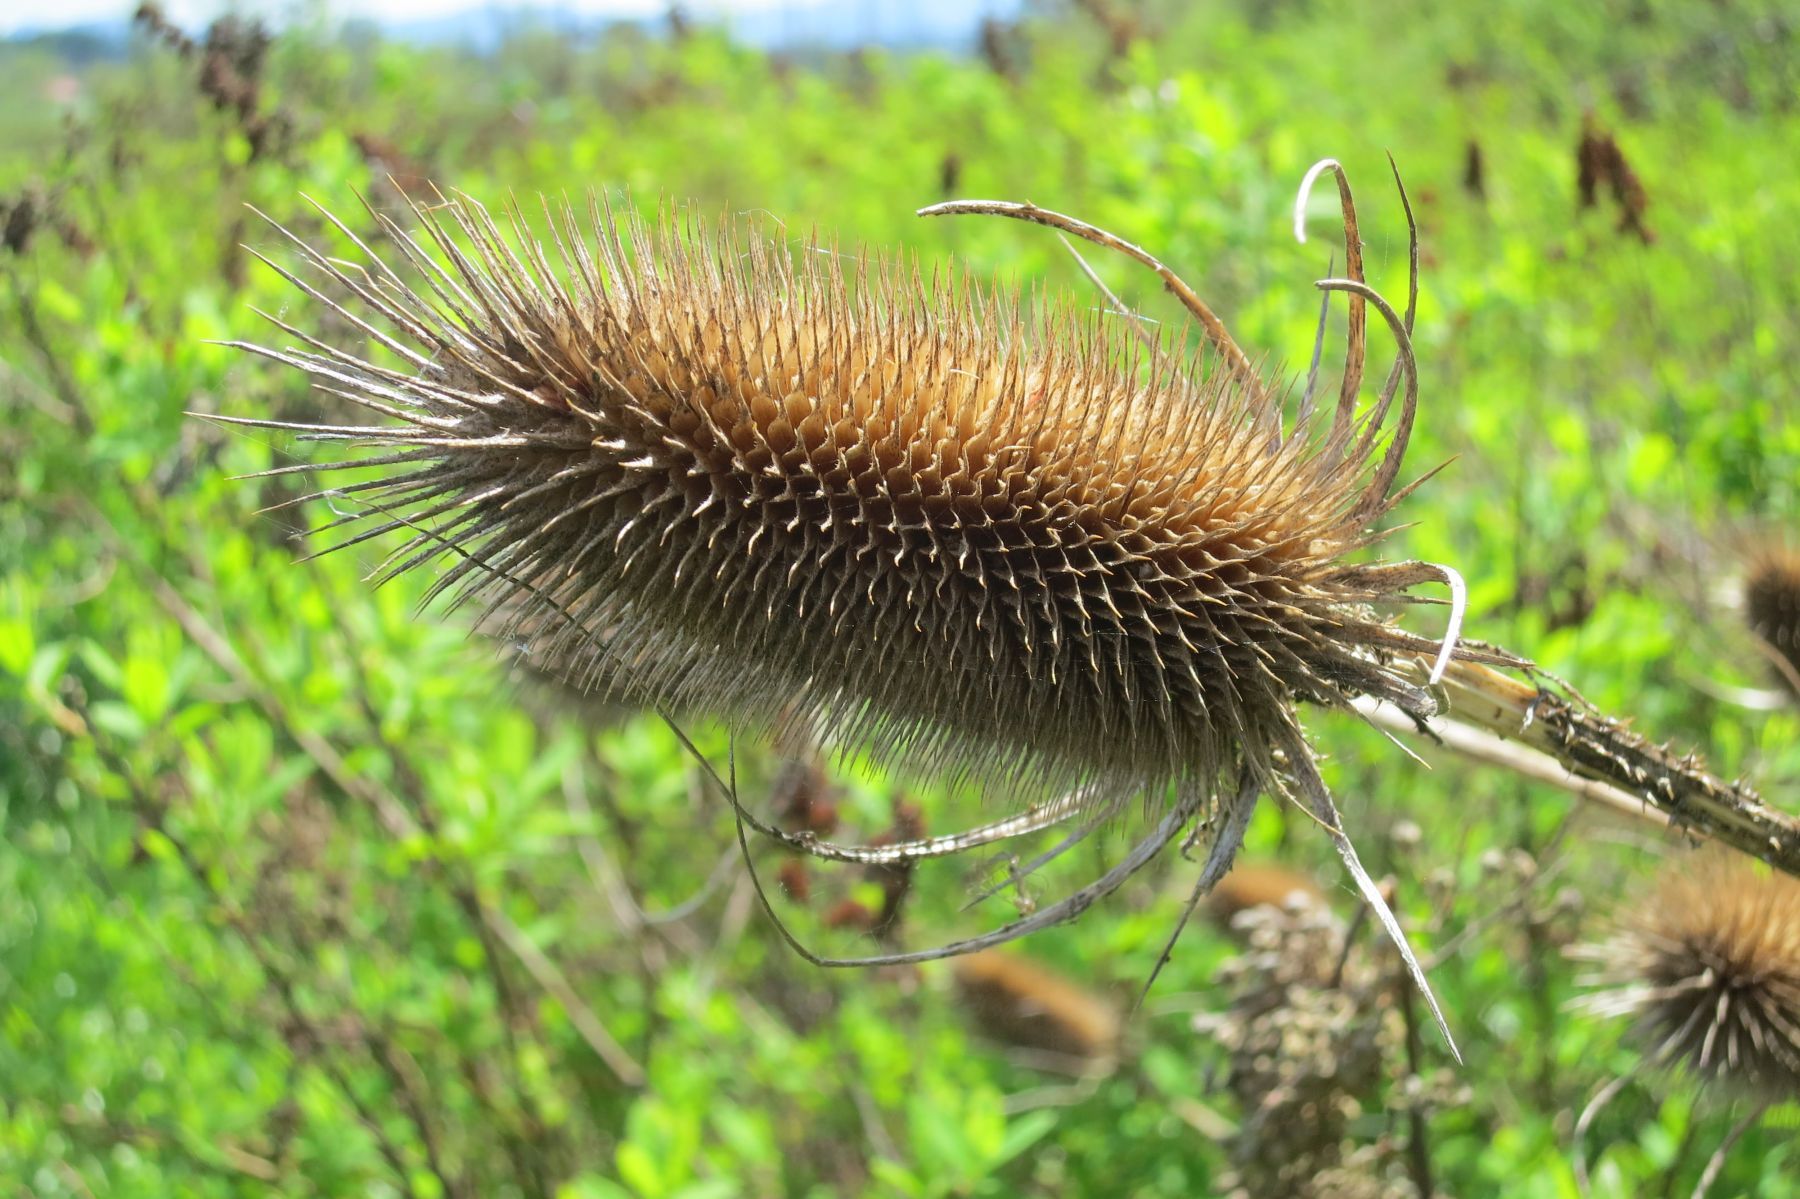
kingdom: Plantae
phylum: Tracheophyta
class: Magnoliopsida
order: Dipsacales
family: Caprifoliaceae
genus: Dipsacus
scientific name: Dipsacus fullonum
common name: Teasel
